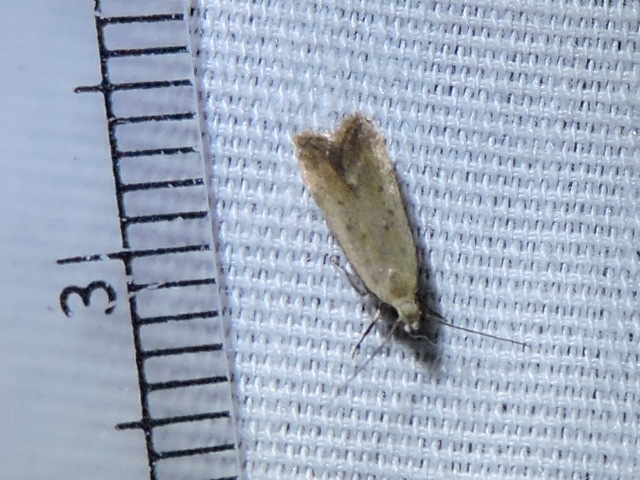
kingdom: Animalia
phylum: Arthropoda
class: Insecta
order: Lepidoptera
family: Gelechiidae
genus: Anacampsis
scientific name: Anacampsis fullonella
